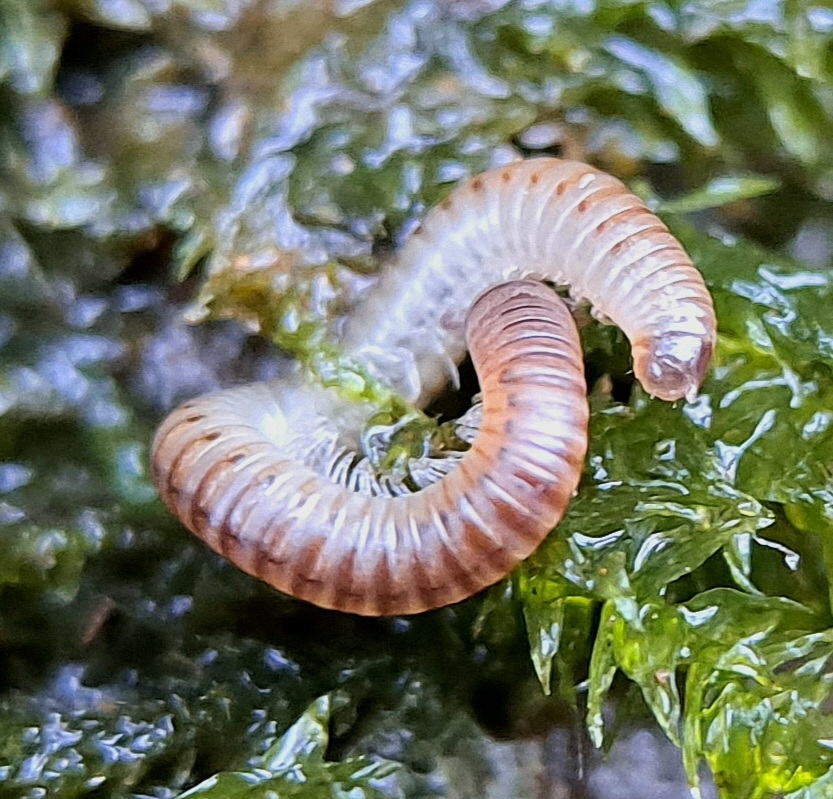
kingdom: Animalia
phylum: Arthropoda
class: Diplopoda
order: Julida
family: Julidae
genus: Cylindroiulus
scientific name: Cylindroiulus punctatus
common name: Blunt-tailed millipede
